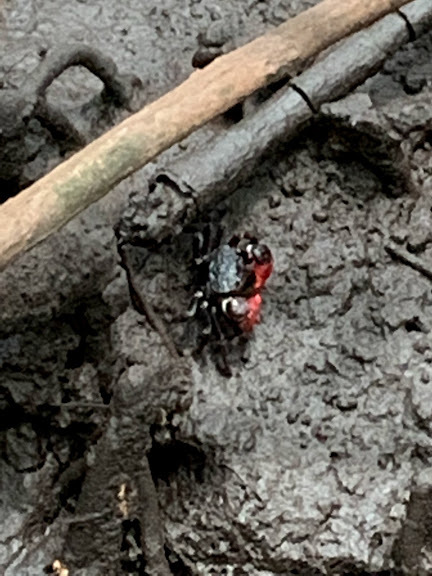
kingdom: Animalia
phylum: Arthropoda
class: Malacostraca
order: Decapoda
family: Sesarmidae
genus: Neosarmatium
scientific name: Neosarmatium smithi
